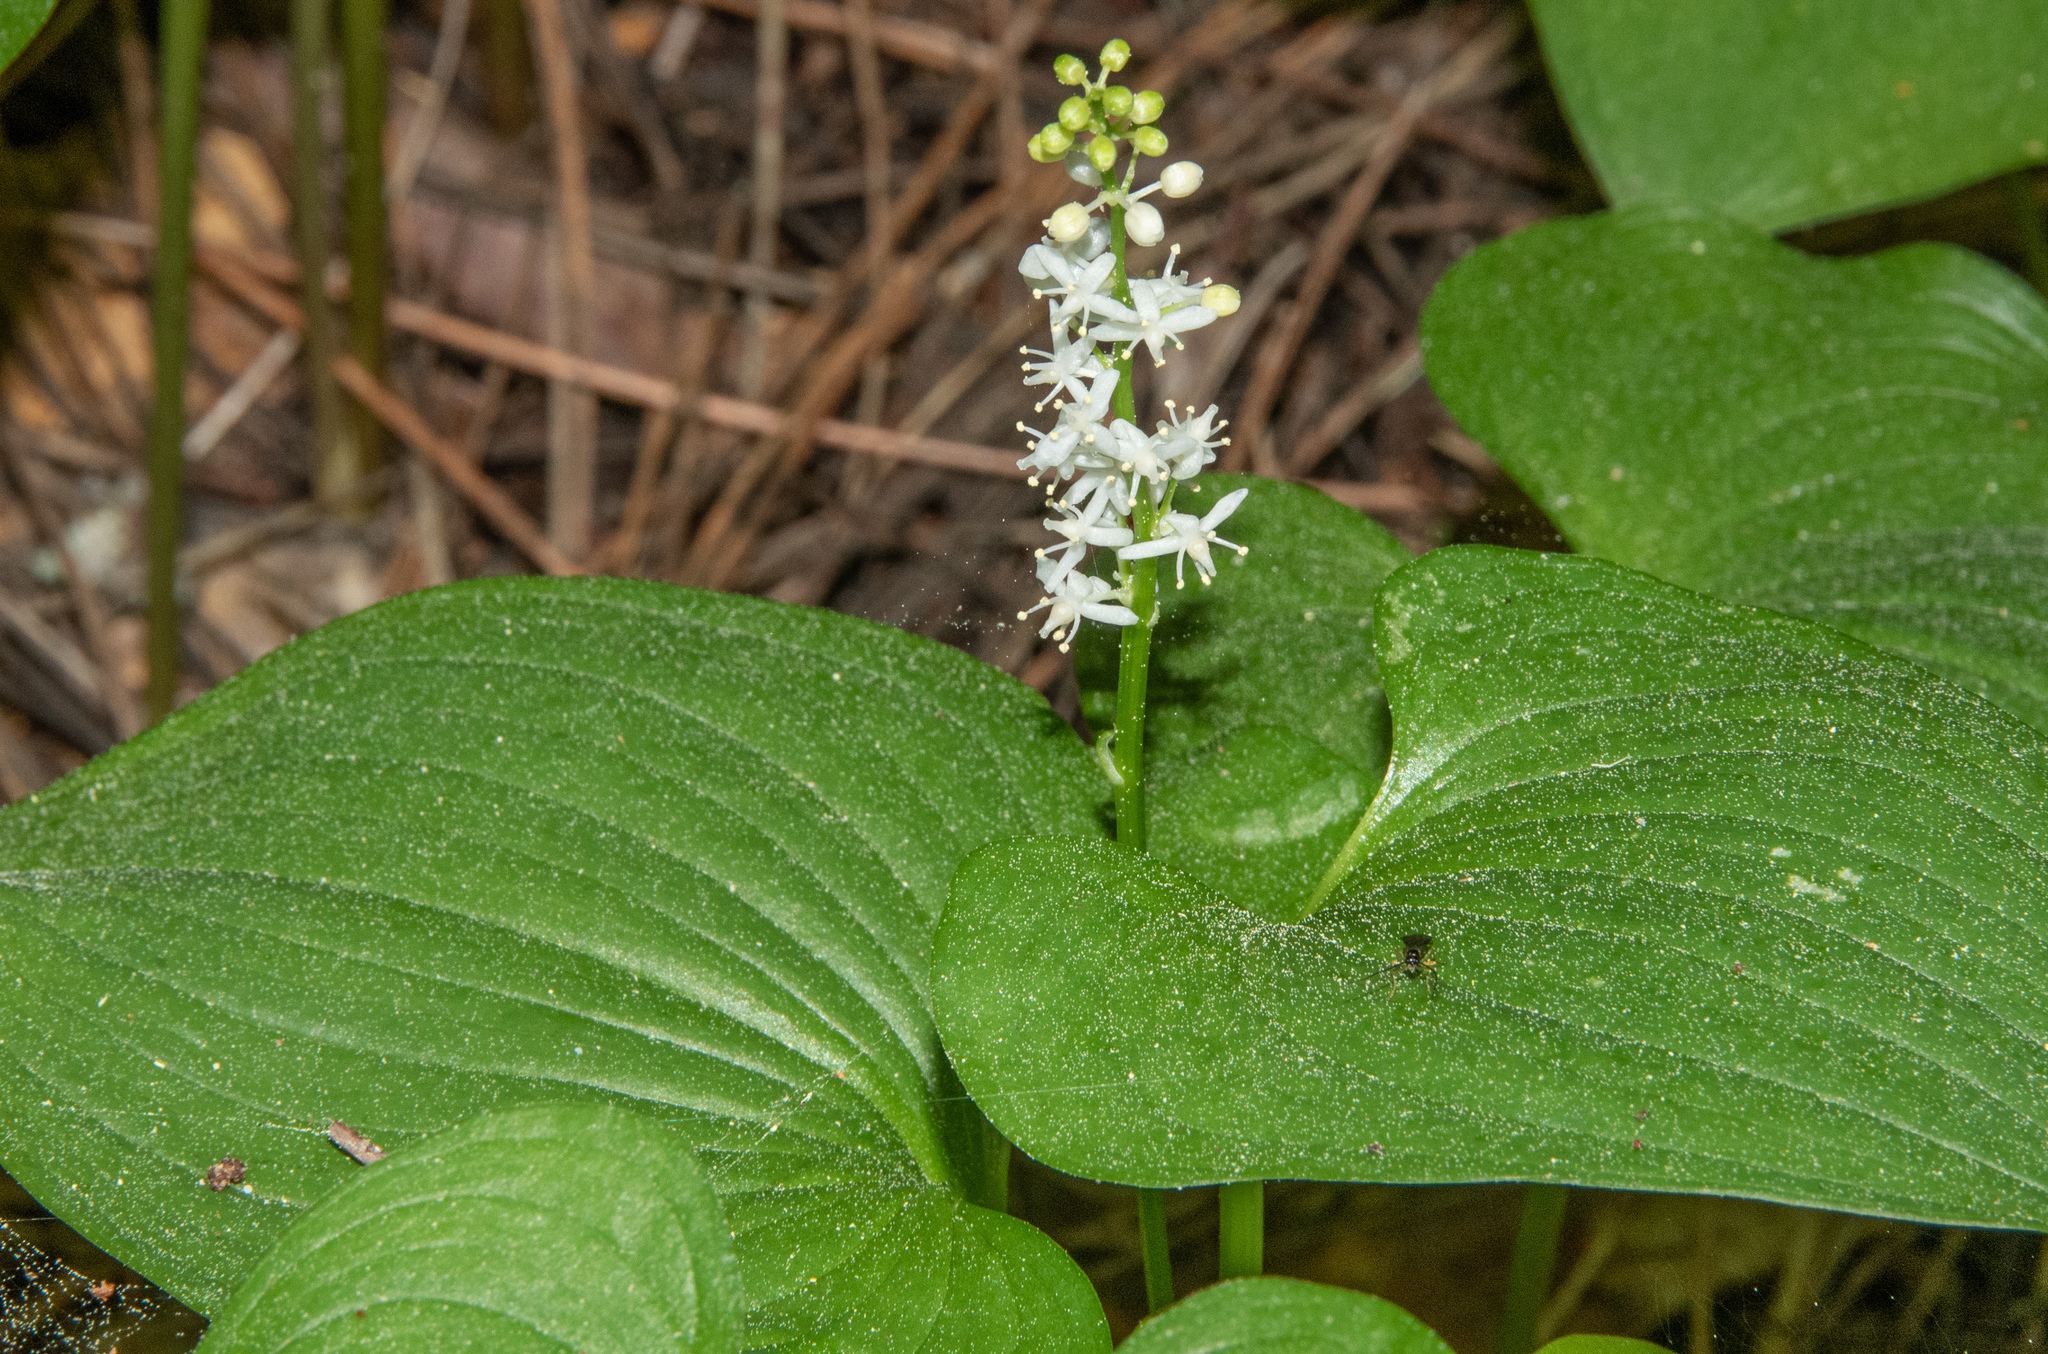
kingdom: Plantae
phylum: Tracheophyta
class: Liliopsida
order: Asparagales
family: Asparagaceae
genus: Maianthemum
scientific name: Maianthemum dilatatum
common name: False lily-of-the-valley
